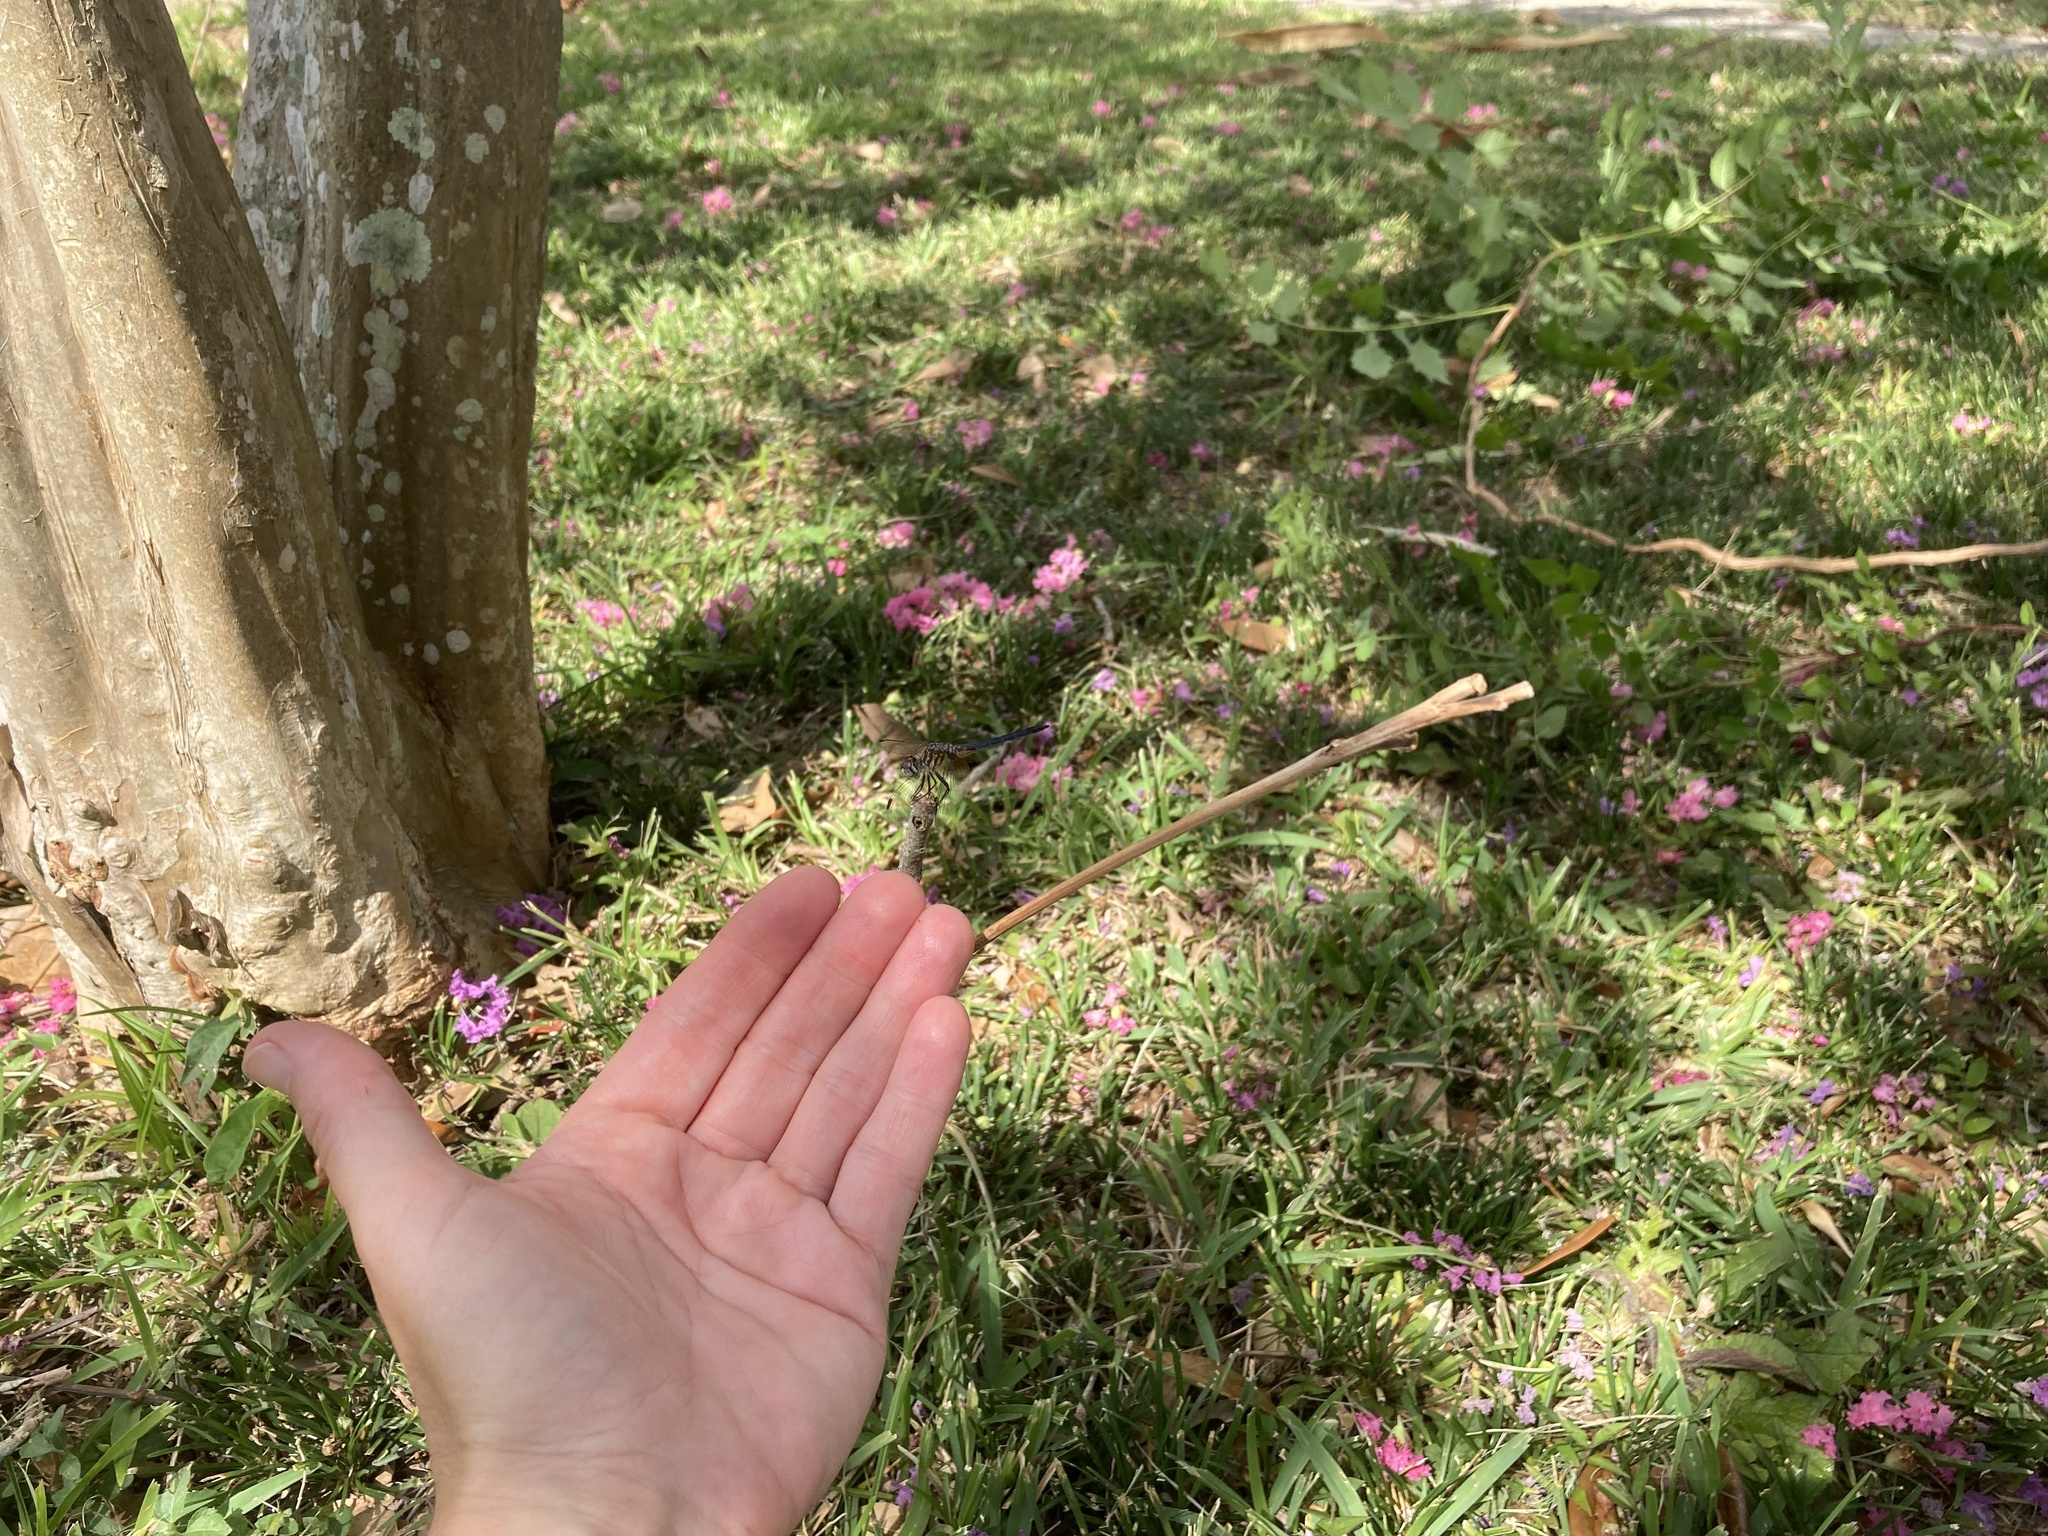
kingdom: Animalia
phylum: Arthropoda
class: Insecta
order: Odonata
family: Libellulidae
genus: Pachydiplax
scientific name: Pachydiplax longipennis
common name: Blue dasher
